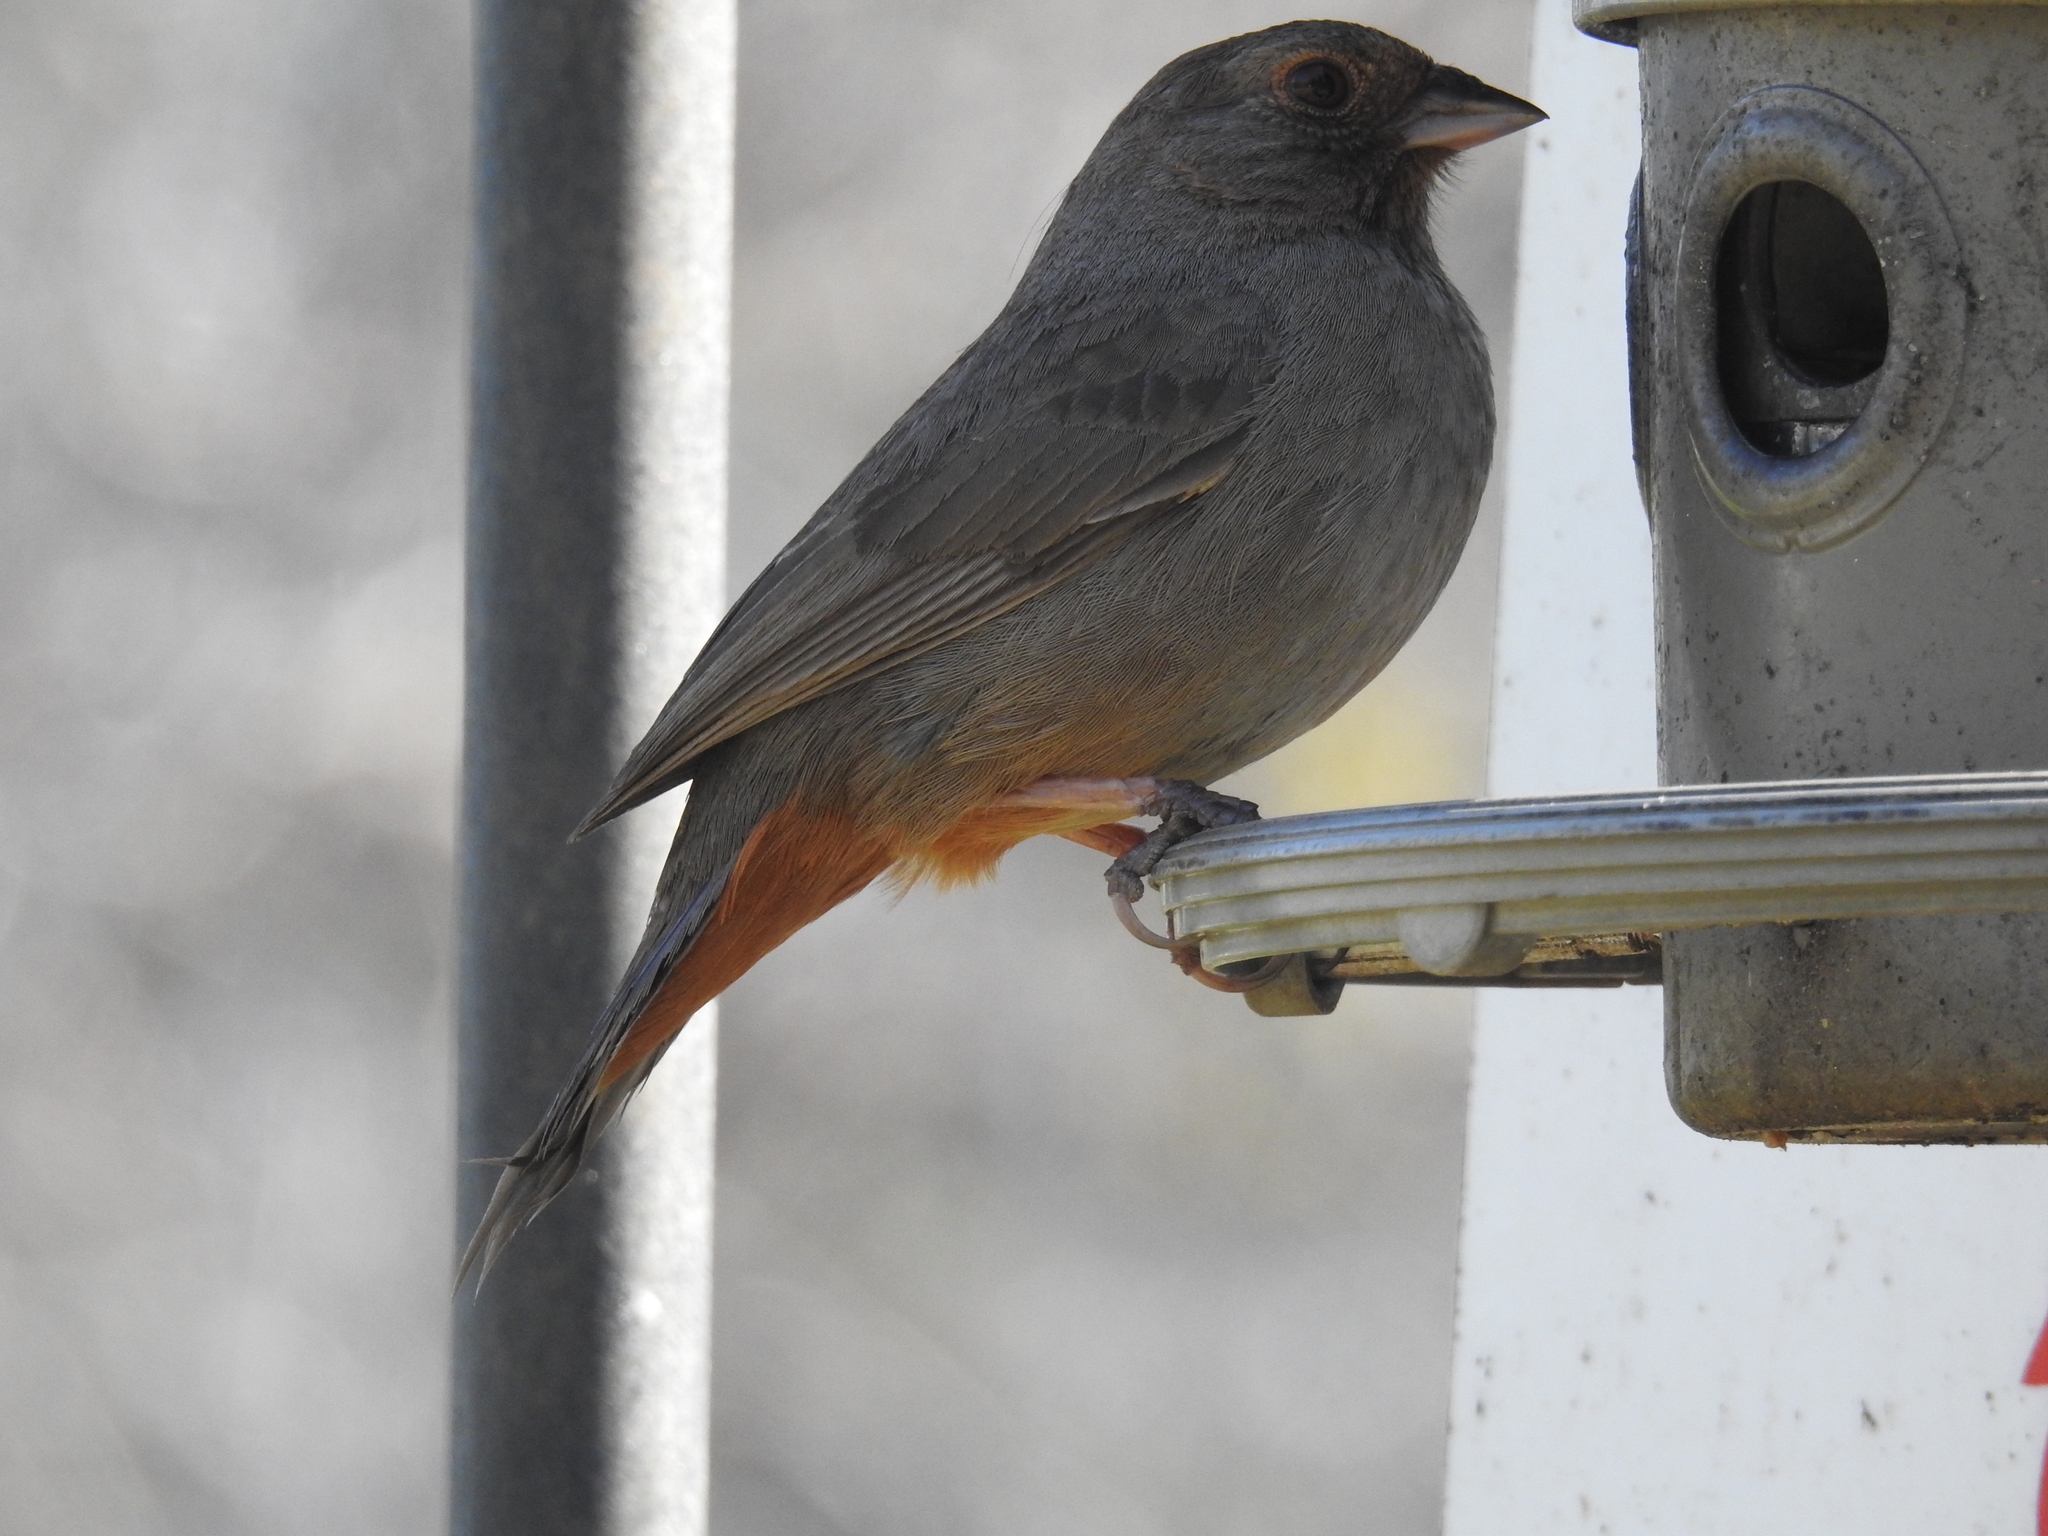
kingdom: Animalia
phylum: Chordata
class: Aves
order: Passeriformes
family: Passerellidae
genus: Melozone
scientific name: Melozone crissalis
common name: California towhee
